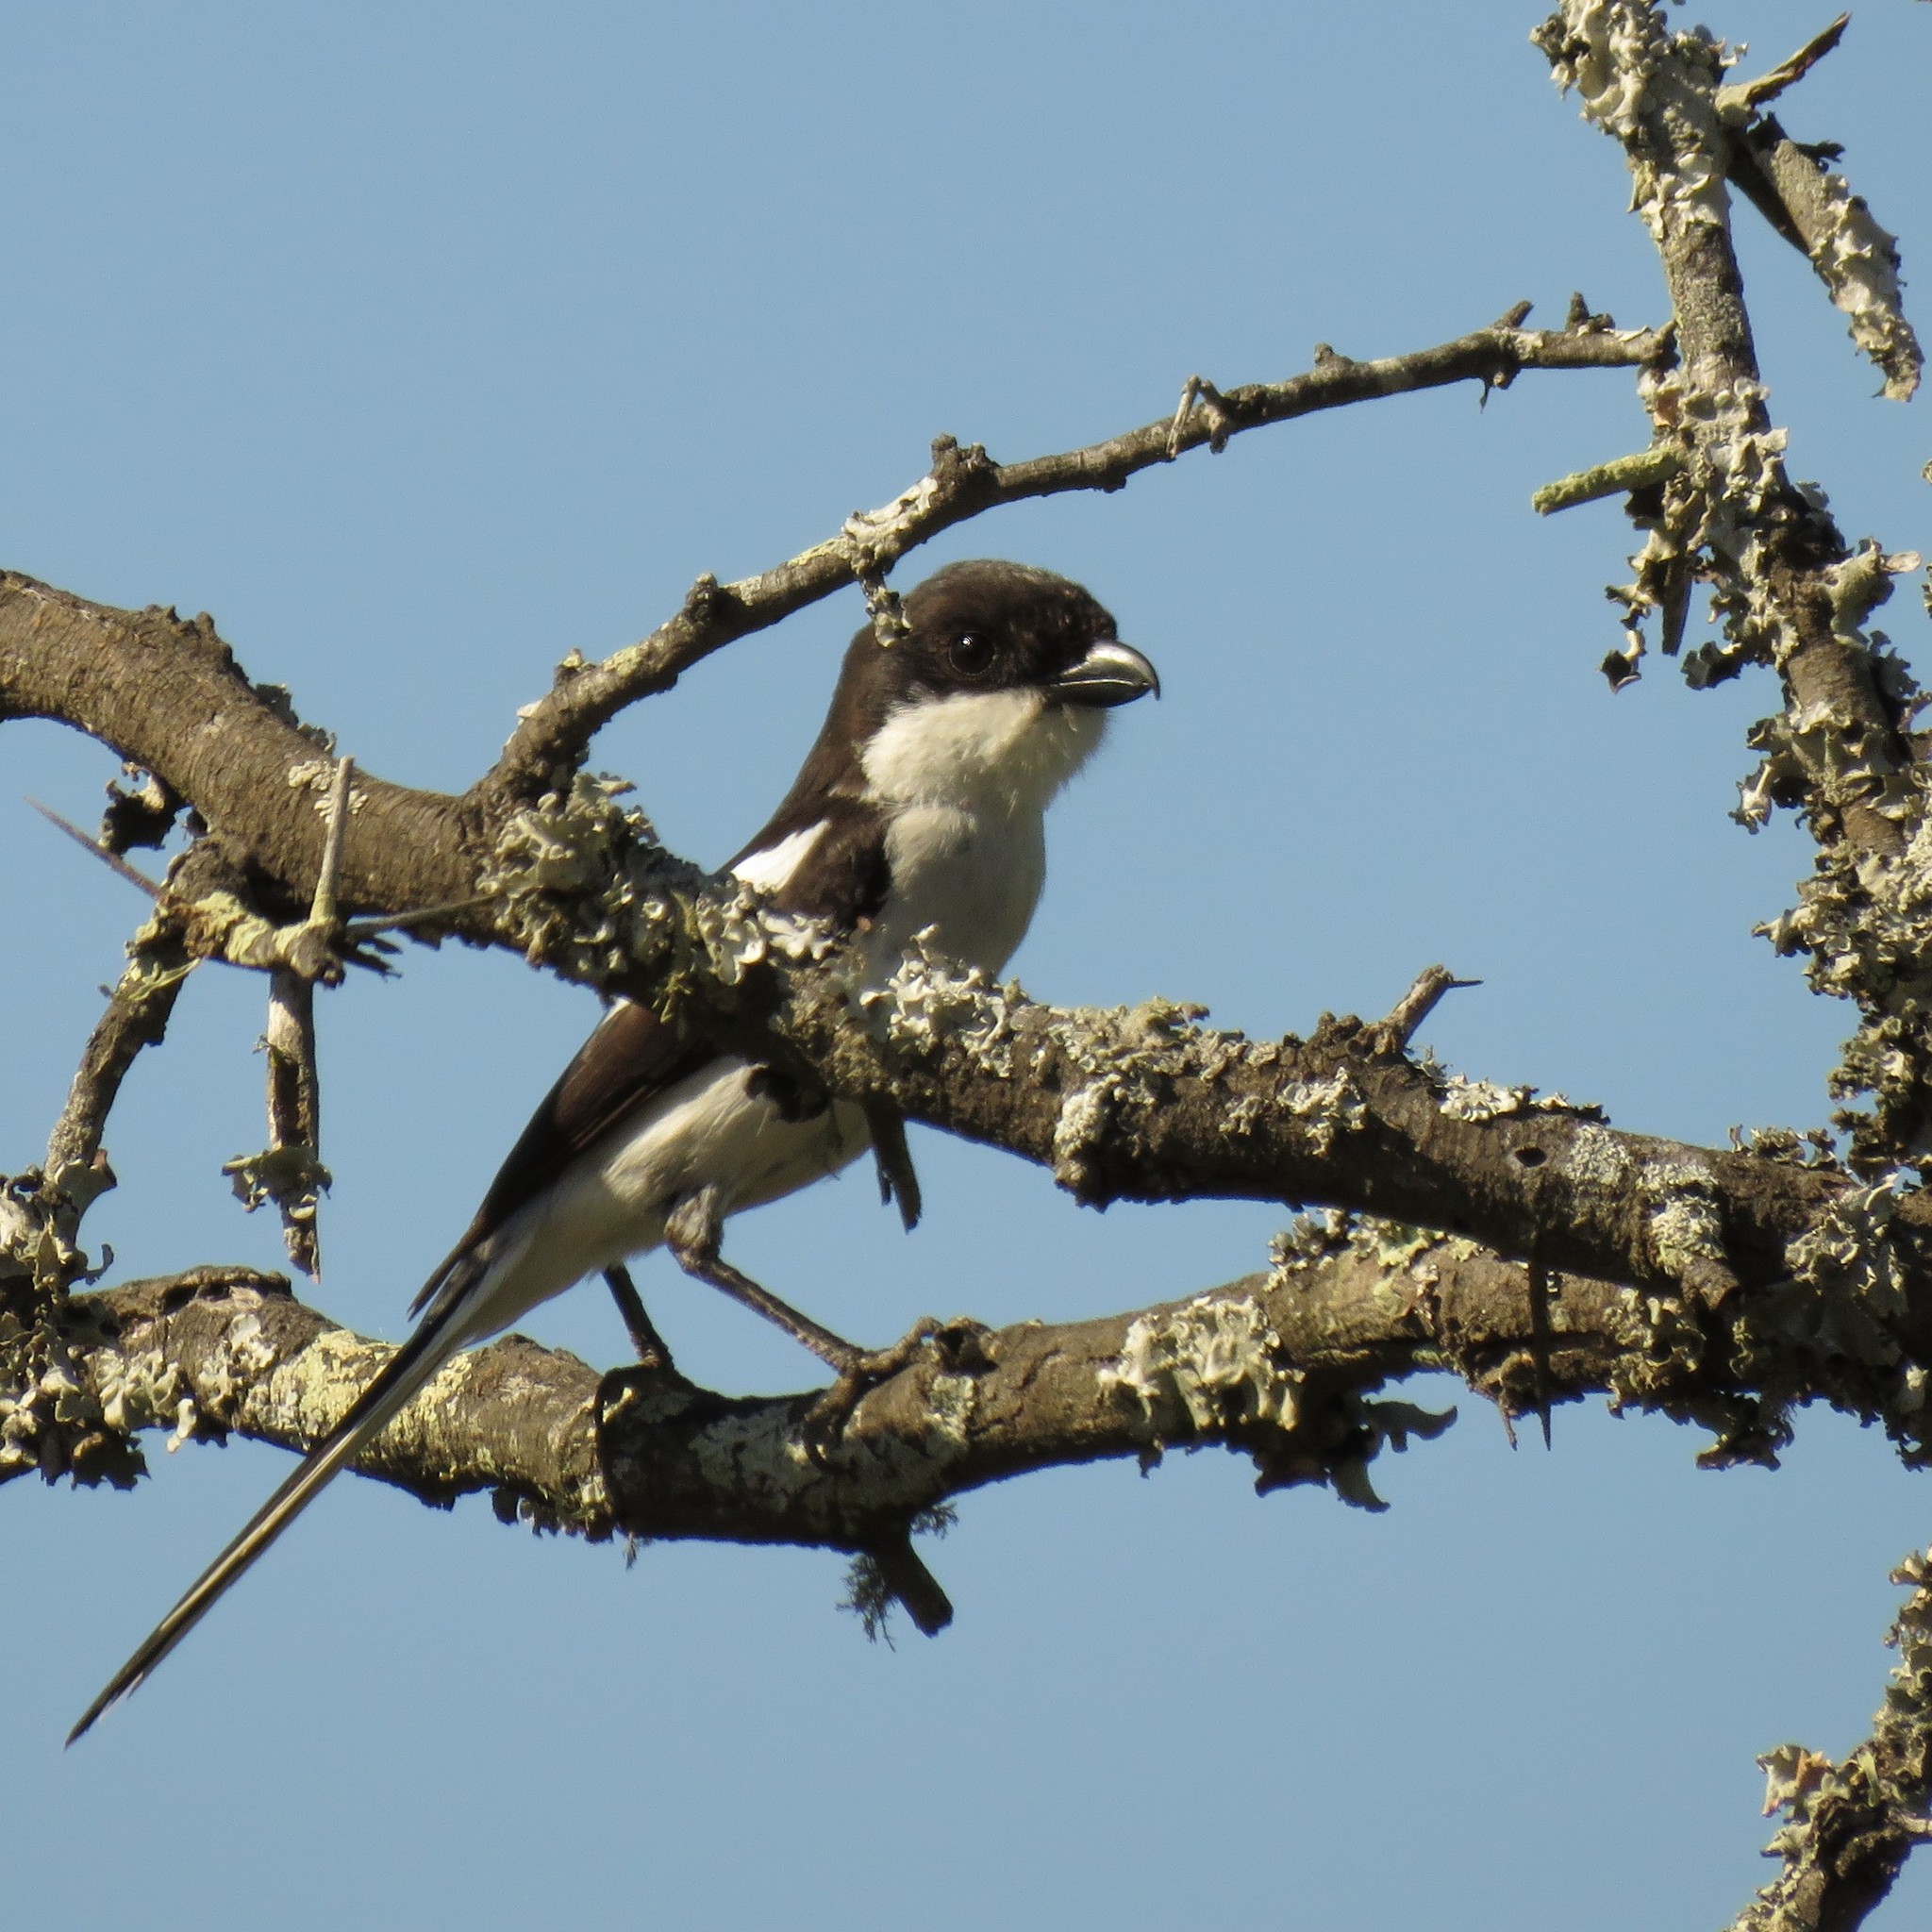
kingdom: Animalia
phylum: Chordata
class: Aves
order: Passeriformes
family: Laniidae
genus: Lanius
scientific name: Lanius collaris
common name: Southern fiscal
